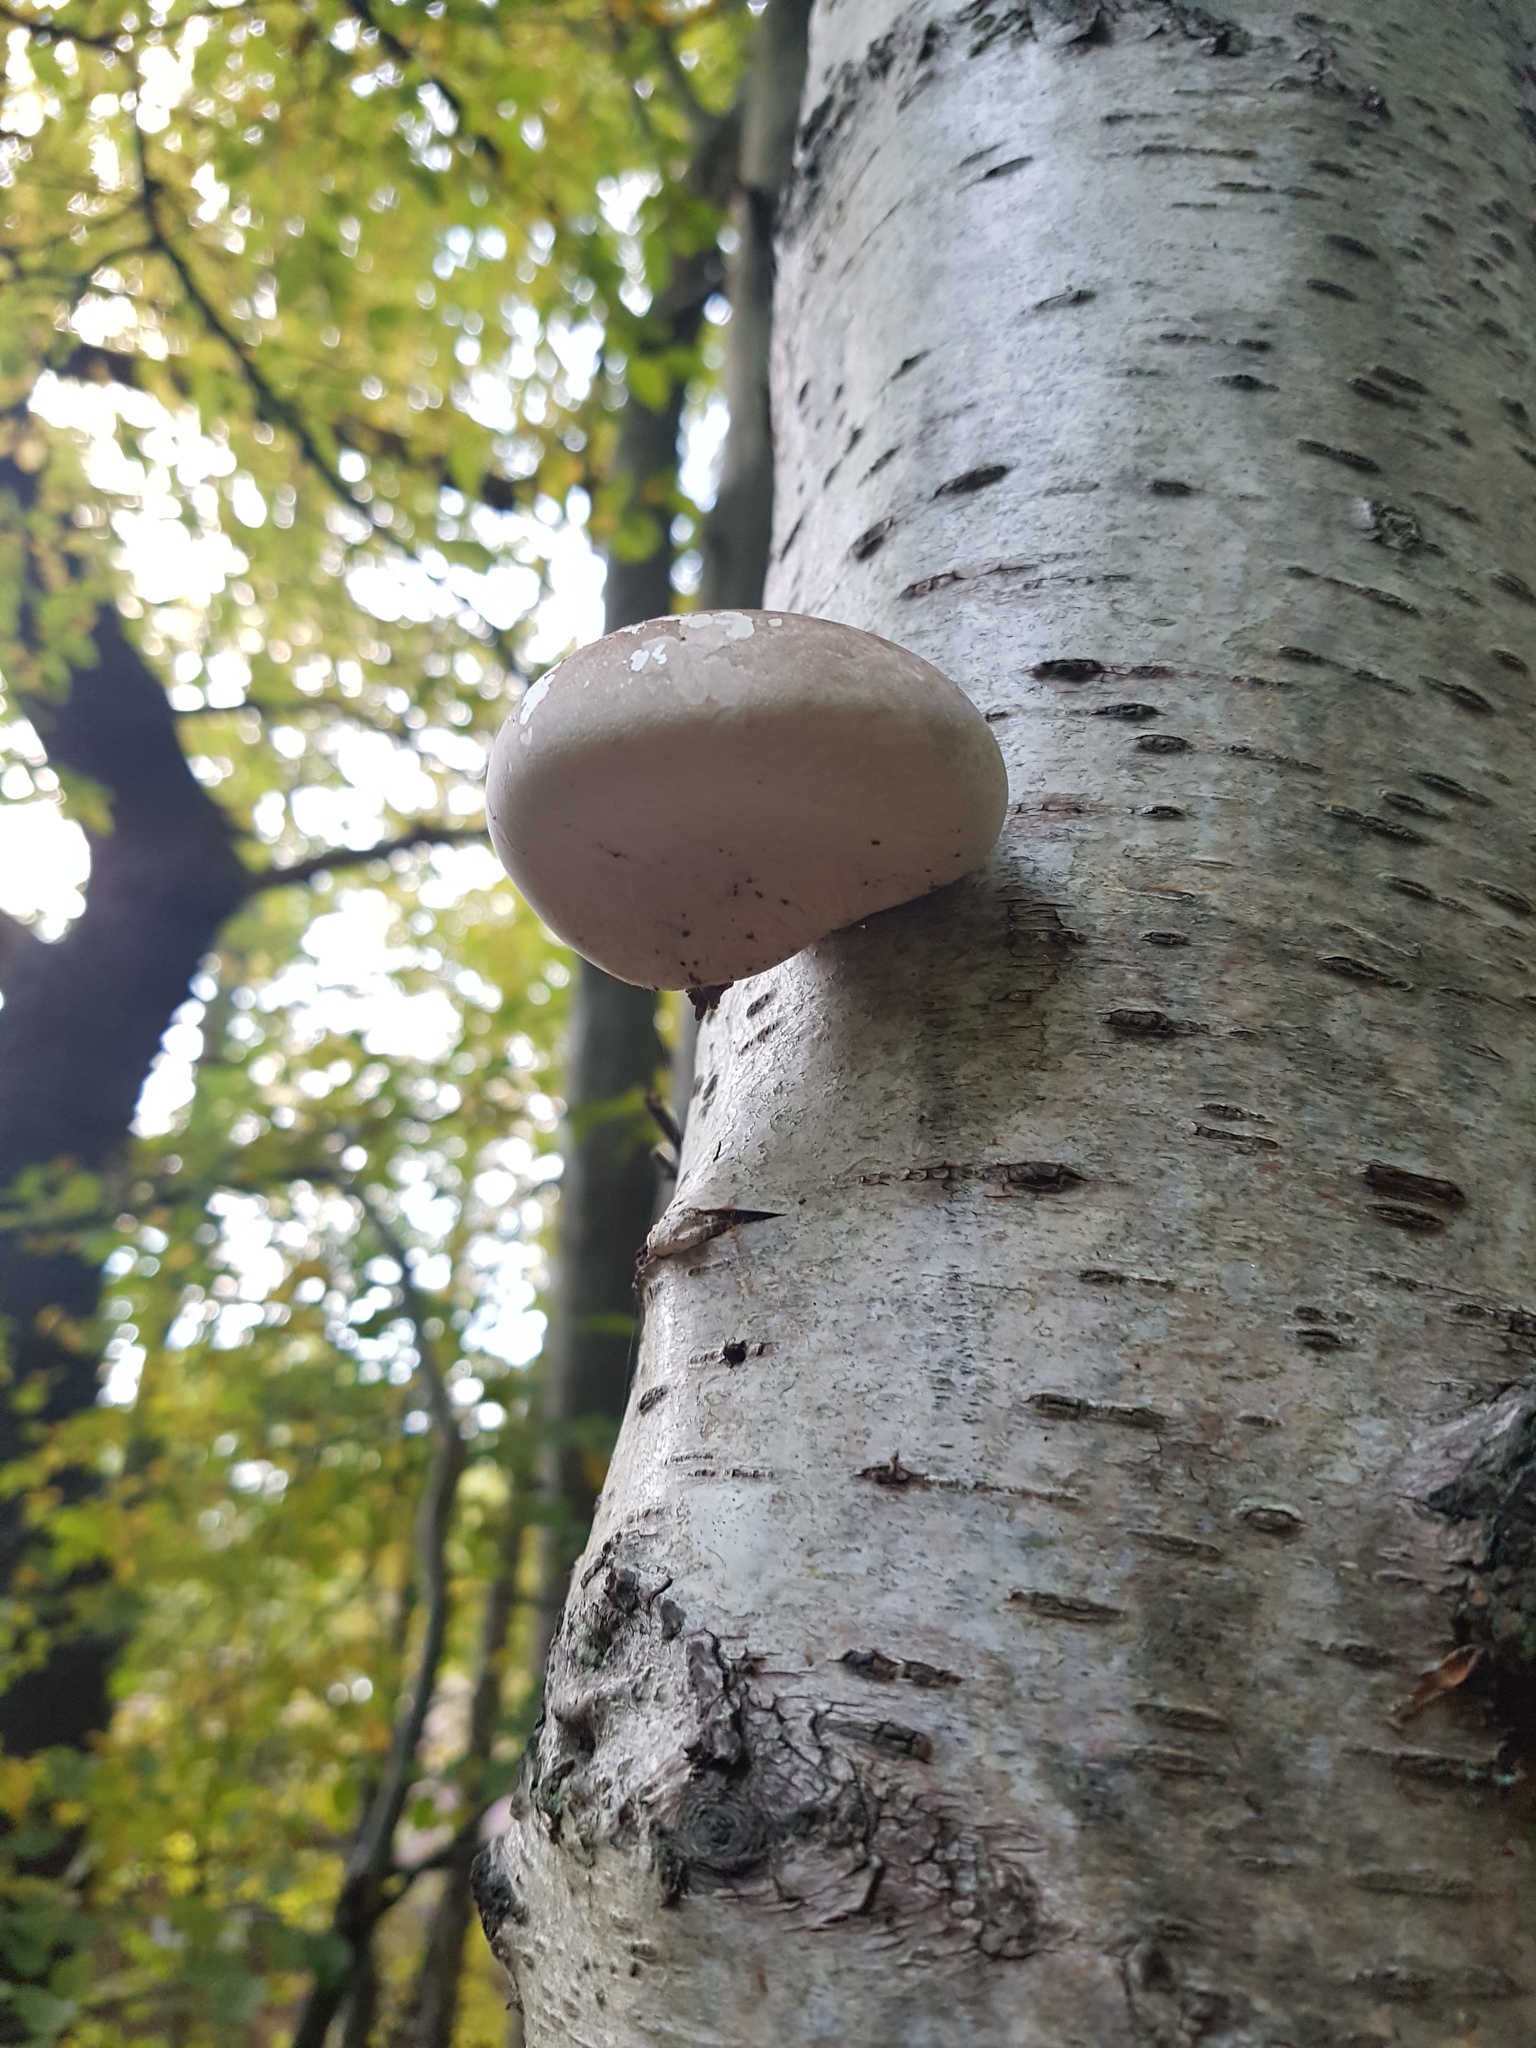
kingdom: Fungi
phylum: Basidiomycota
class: Agaricomycetes
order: Polyporales
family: Fomitopsidaceae
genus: Fomitopsis
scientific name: Fomitopsis betulina
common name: Birch polypore
